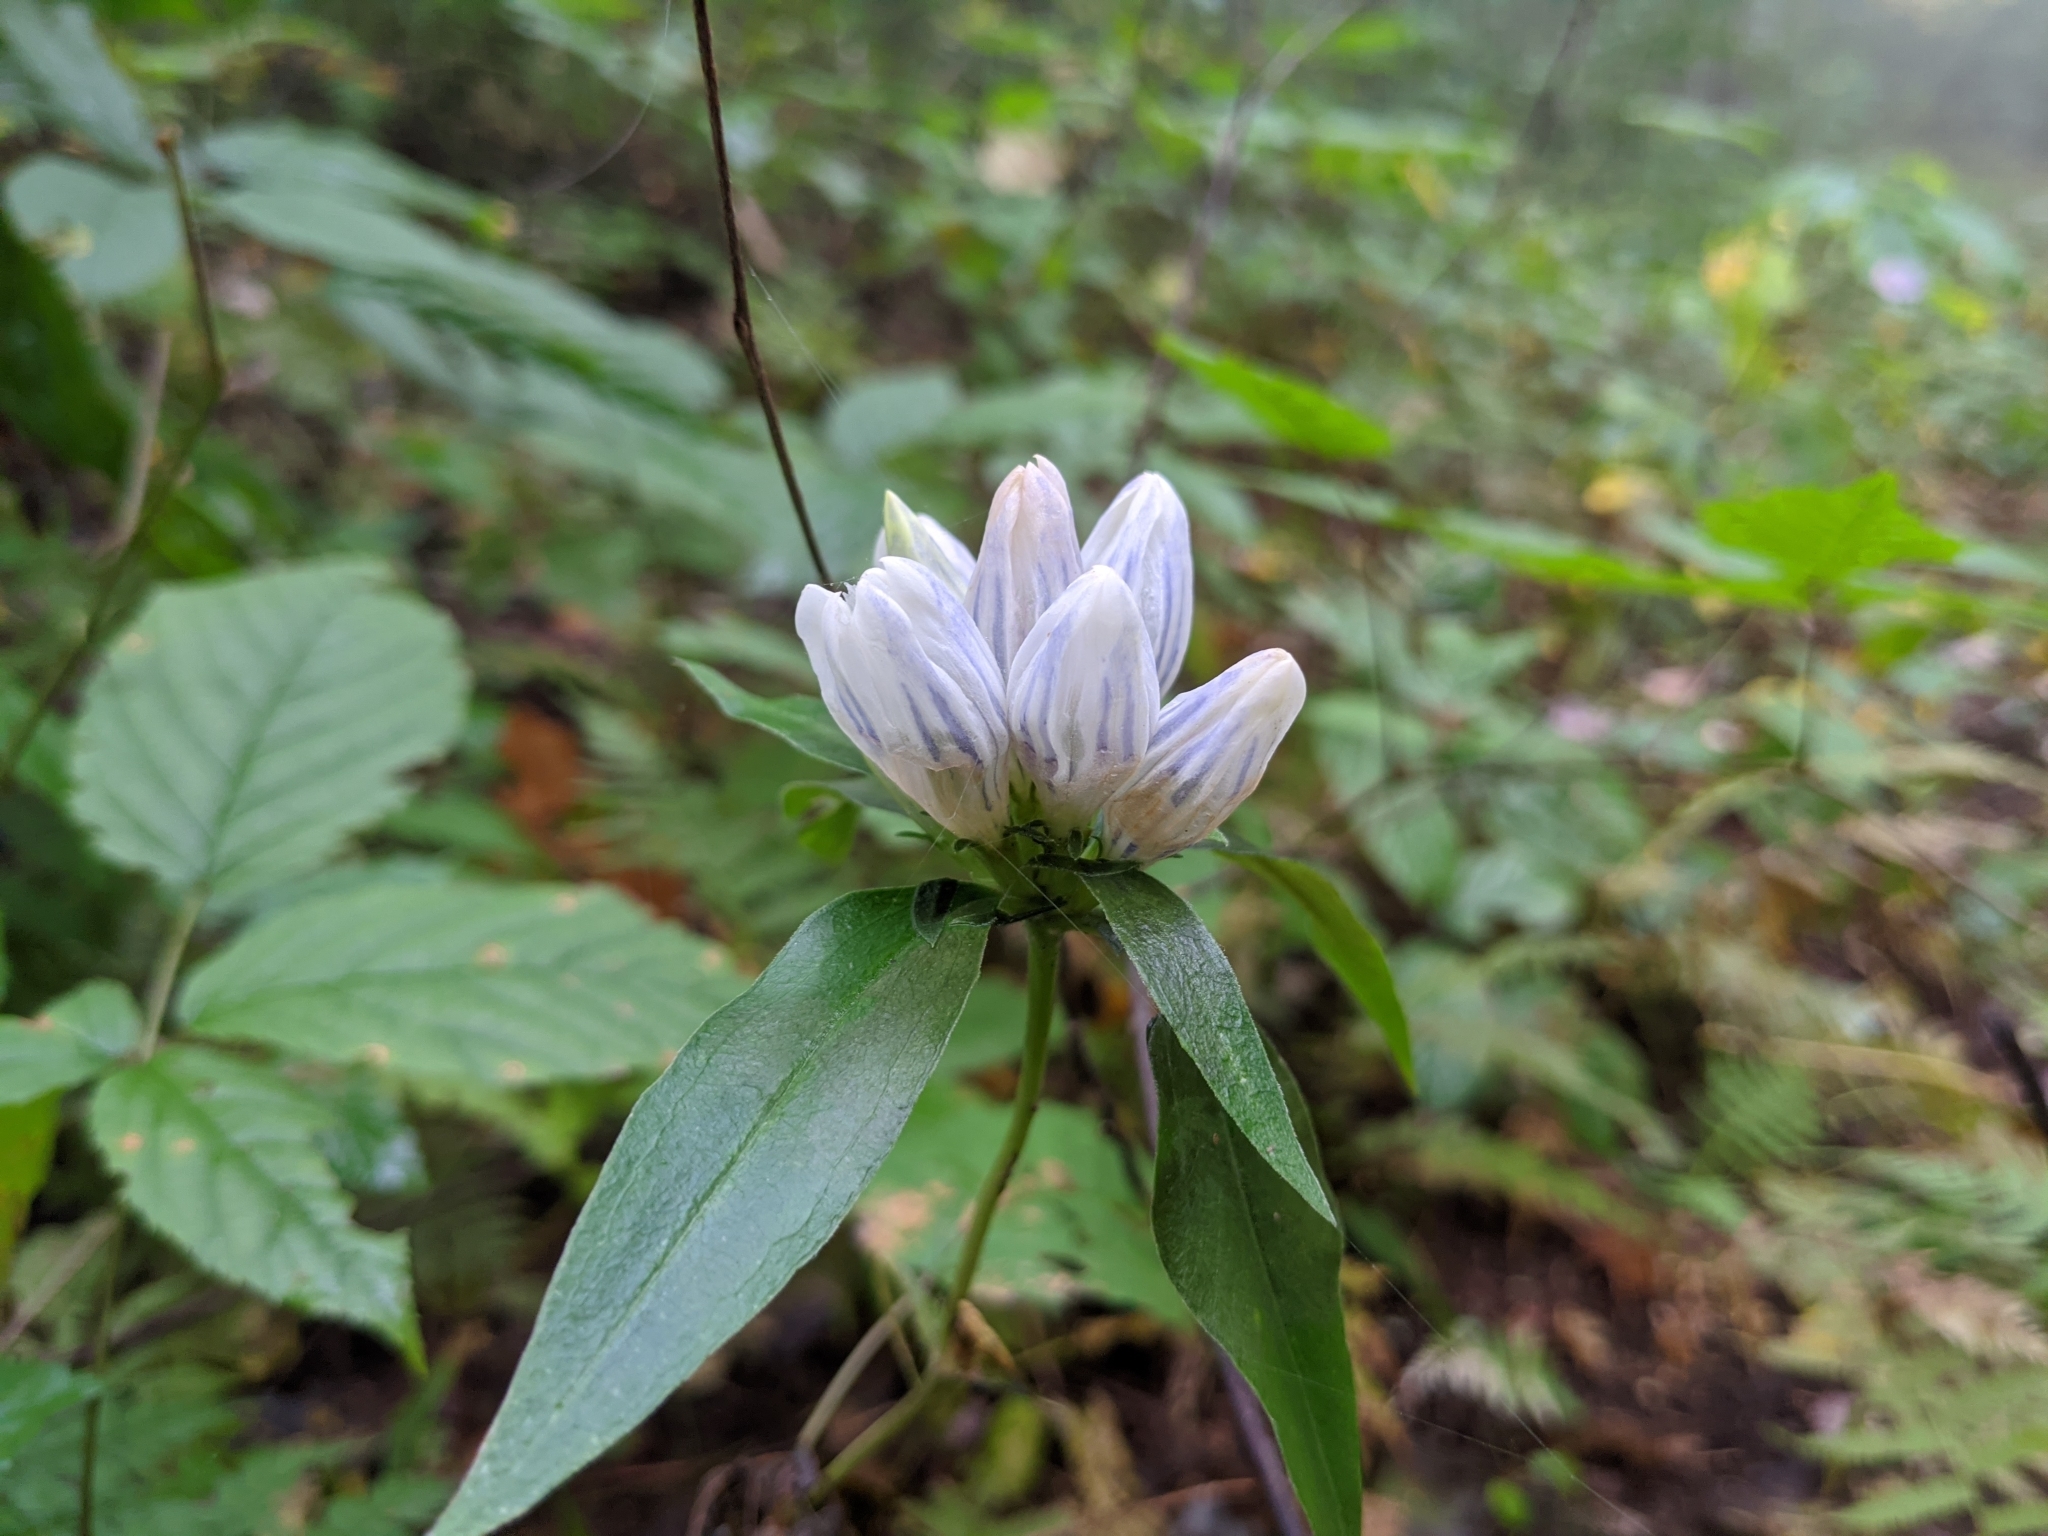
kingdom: Plantae
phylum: Tracheophyta
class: Magnoliopsida
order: Gentianales
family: Gentianaceae
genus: Gentiana
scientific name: Gentiana decora
